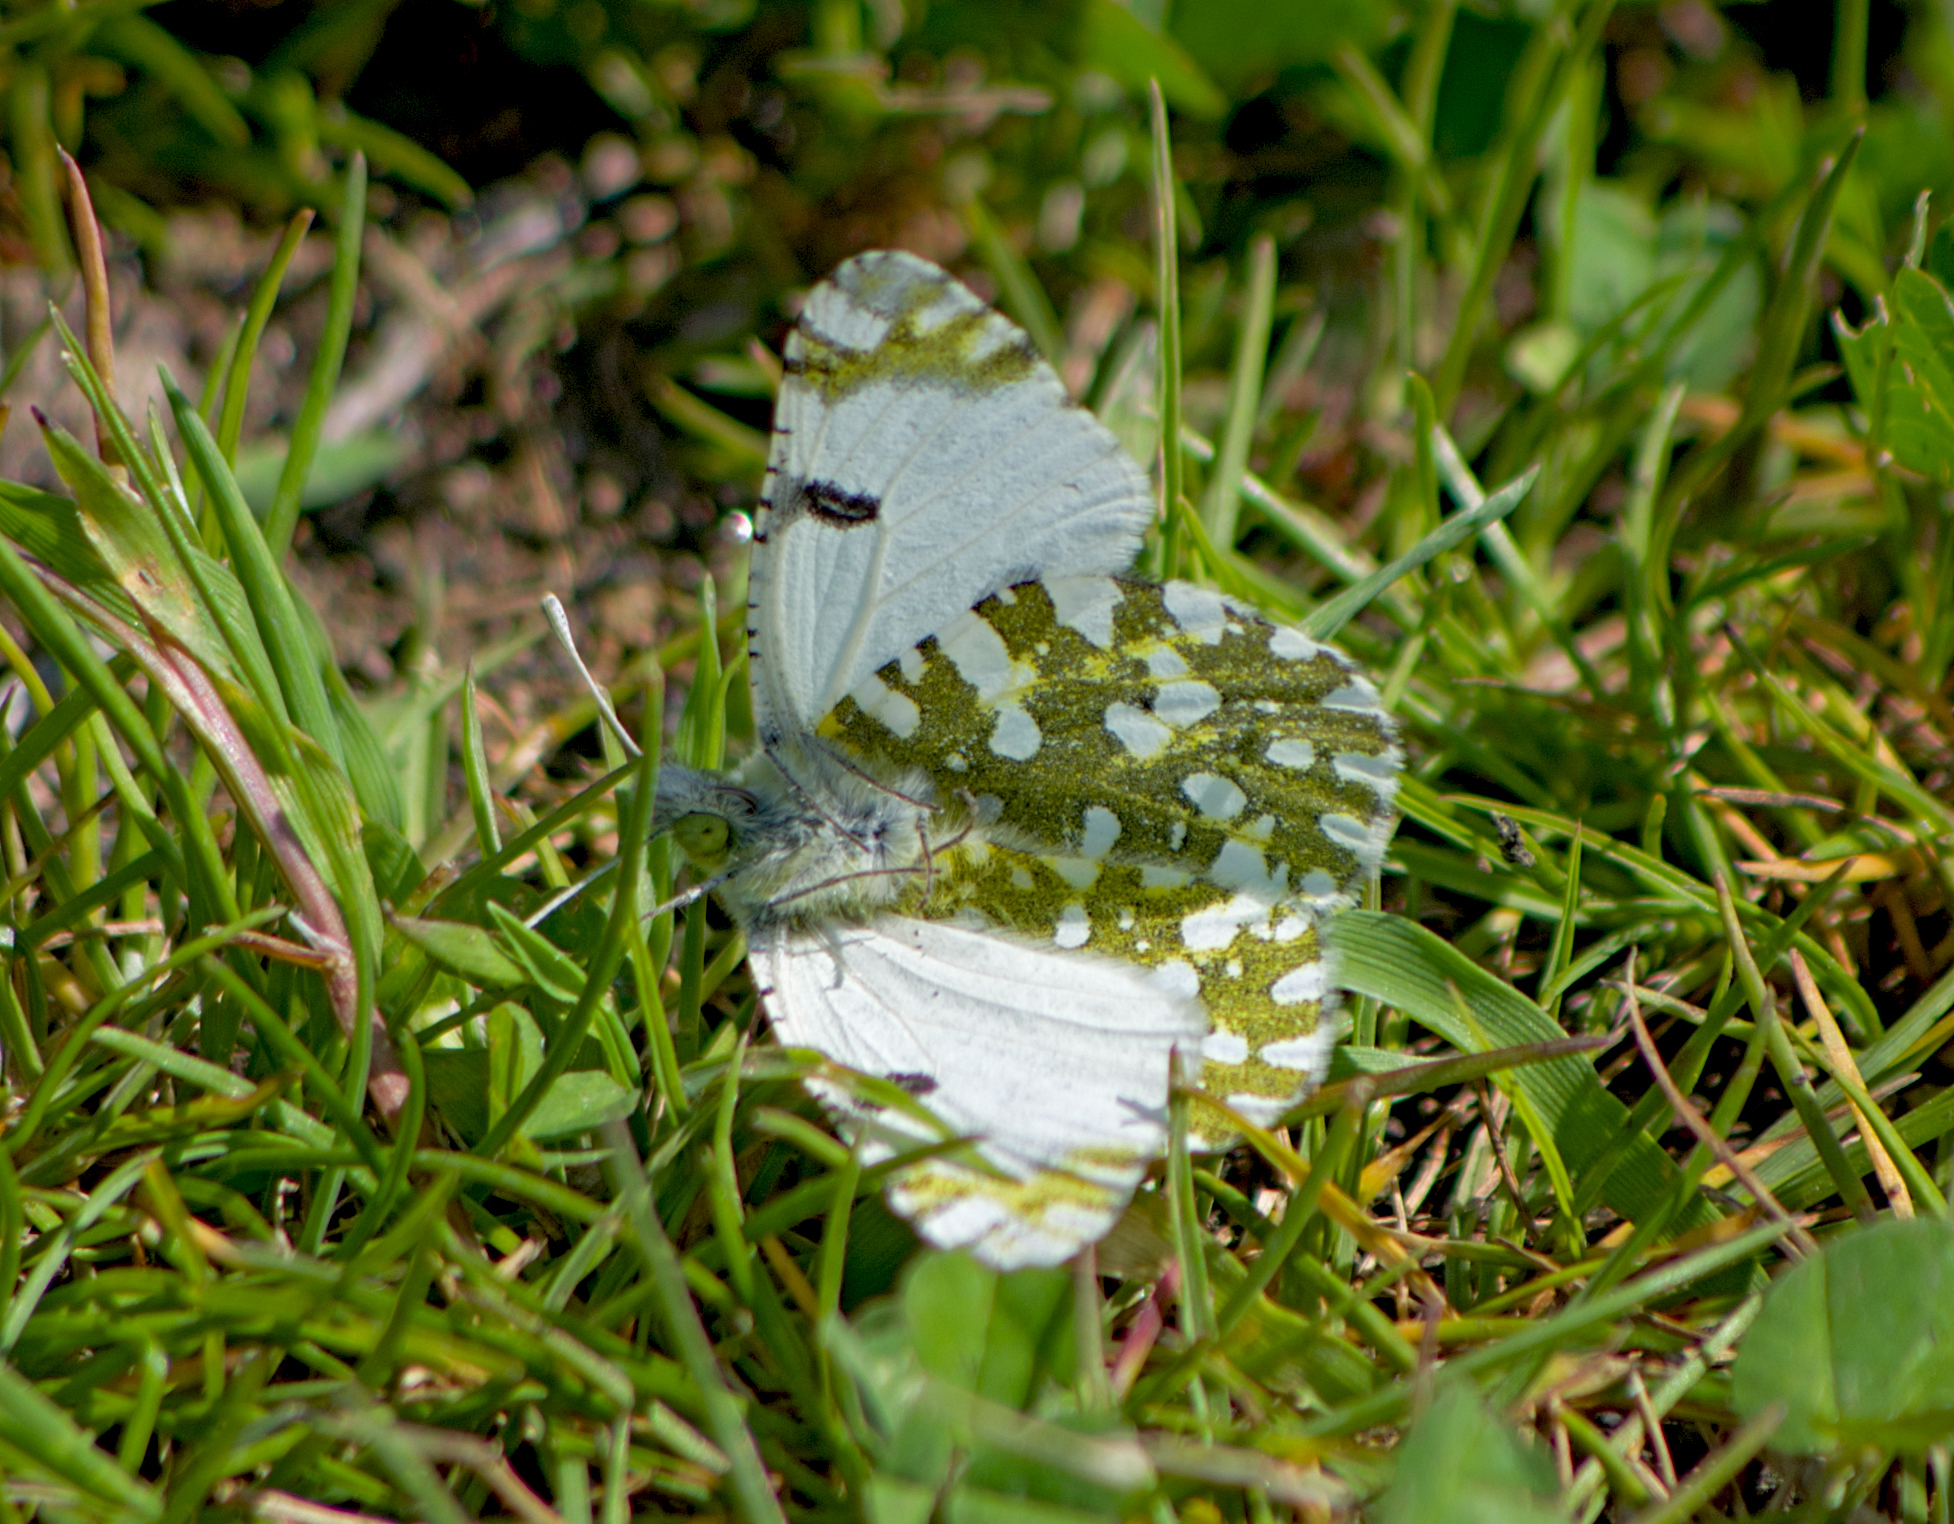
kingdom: Animalia
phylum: Arthropoda
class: Insecta
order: Lepidoptera
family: Pieridae
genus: Euchloe
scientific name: Euchloe ausonia
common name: Eastern dappled white
